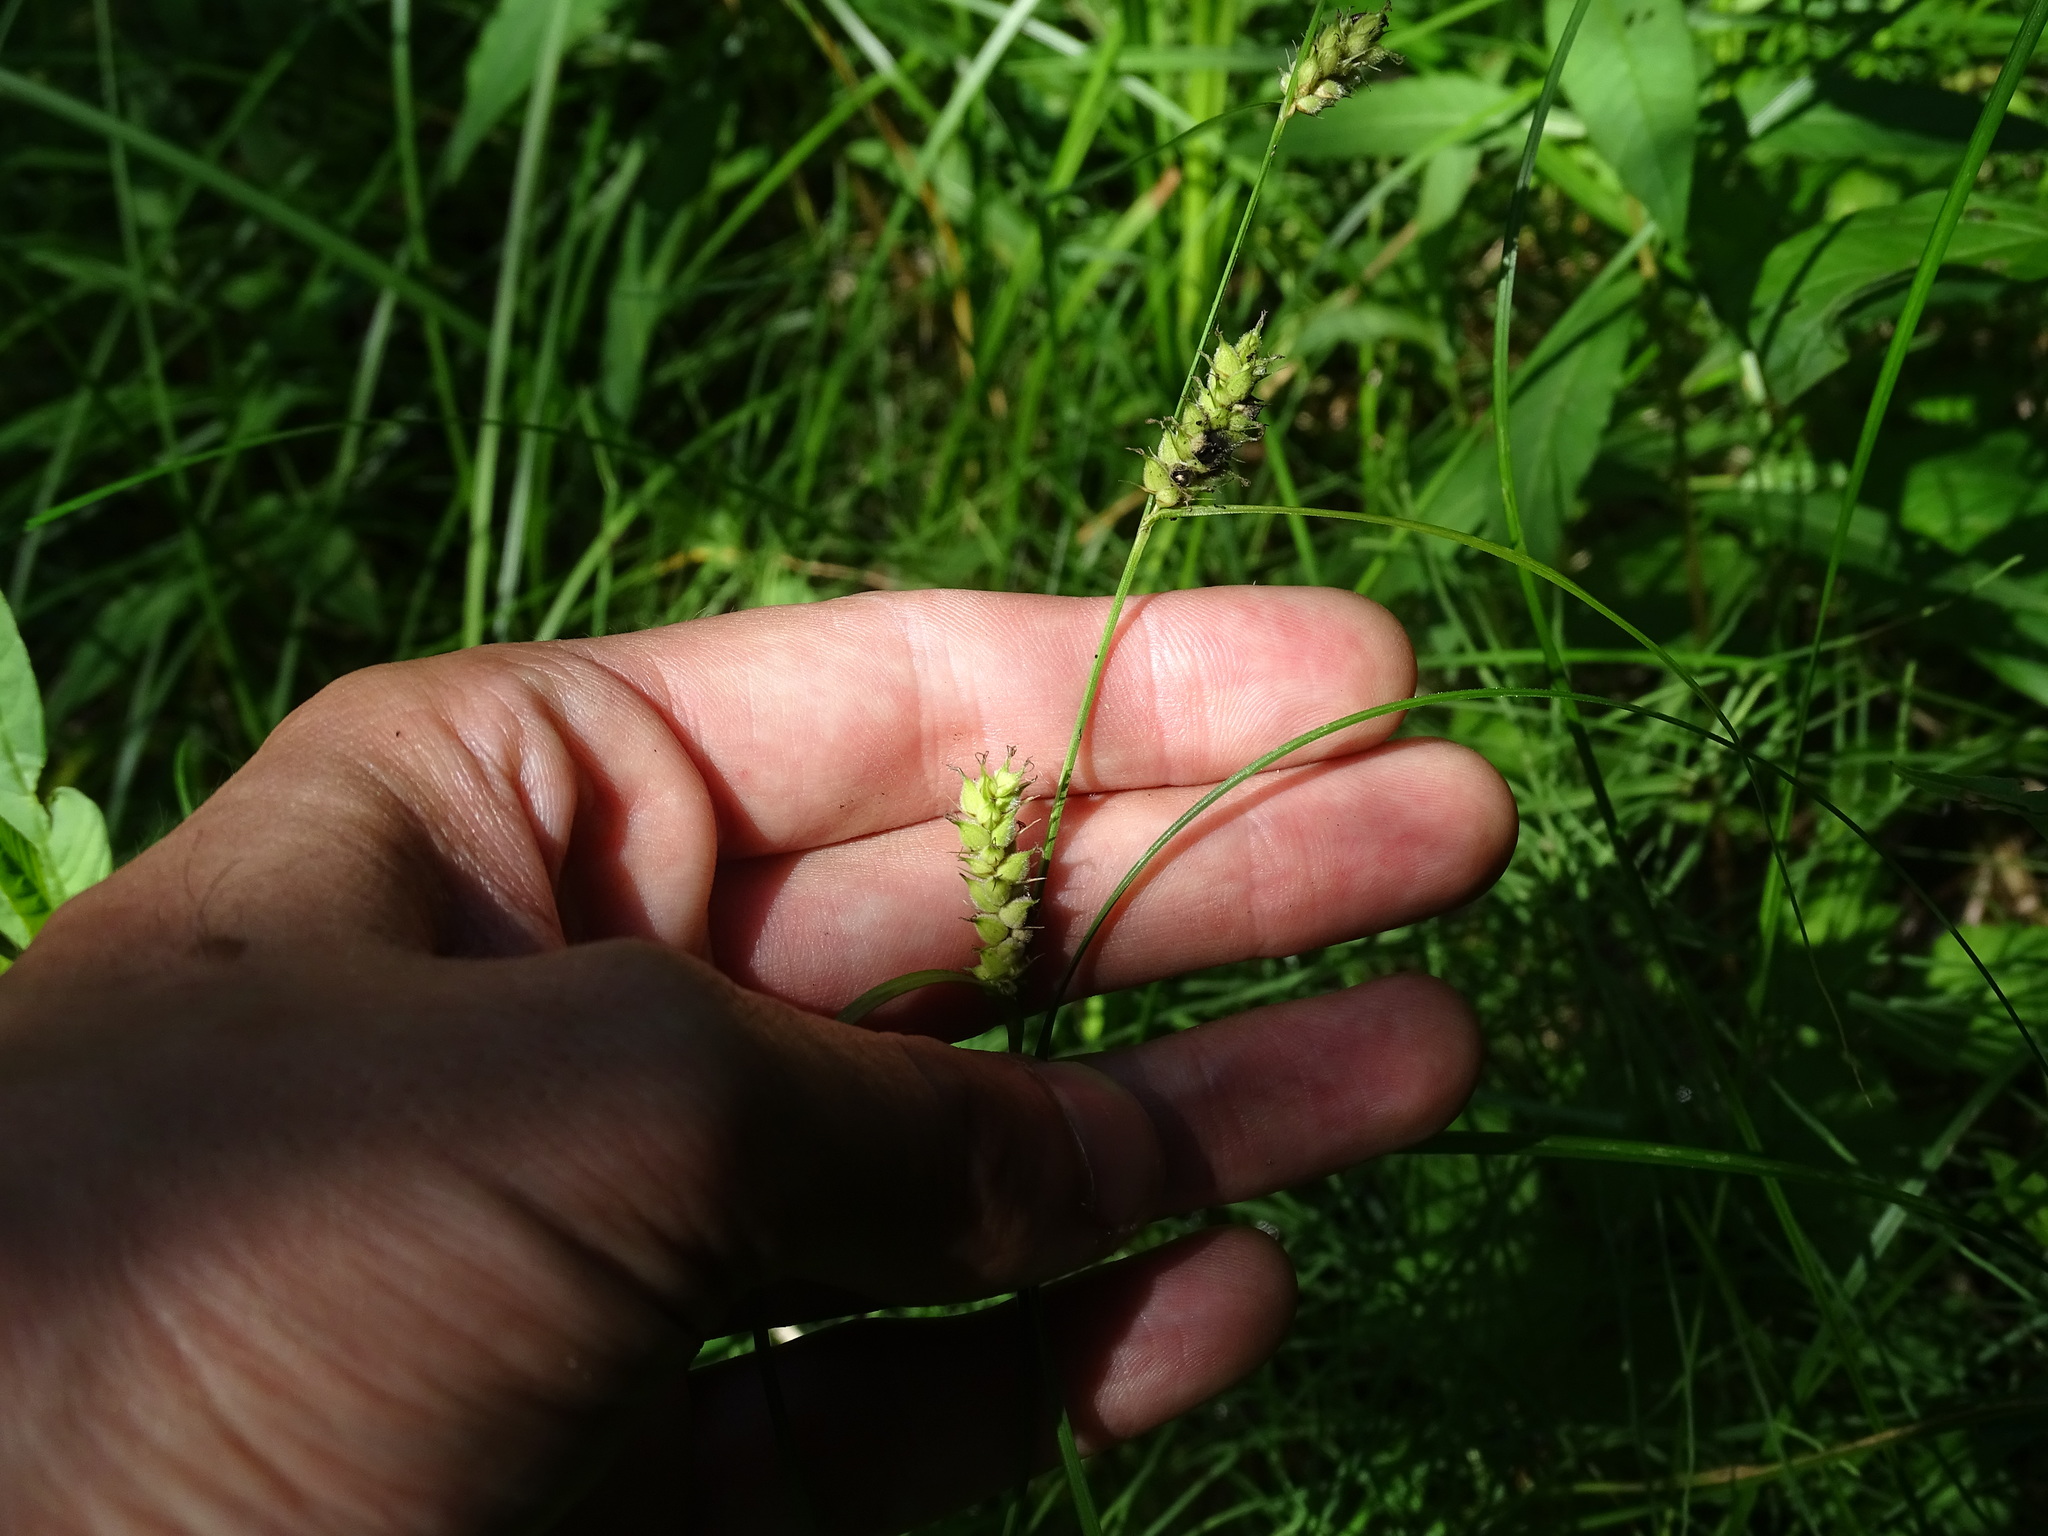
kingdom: Plantae
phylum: Tracheophyta
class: Liliopsida
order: Poales
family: Cyperaceae
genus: Carex
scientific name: Carex pellita
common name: Woolly sedge
